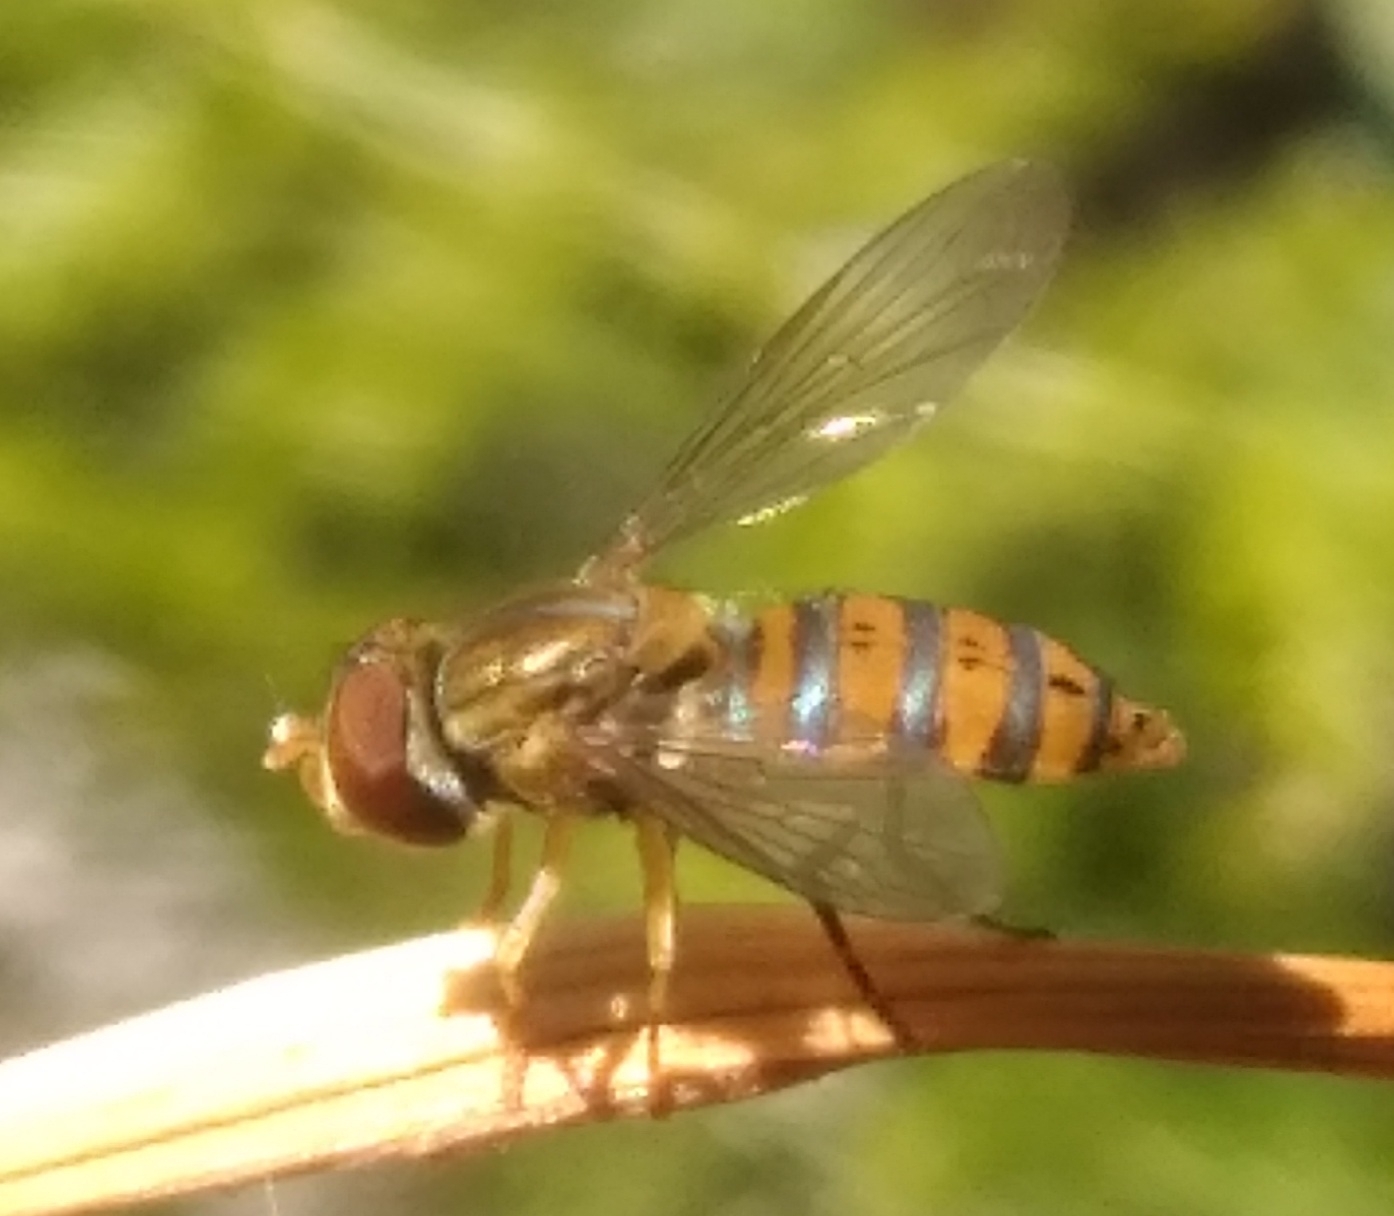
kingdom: Animalia
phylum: Arthropoda
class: Insecta
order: Diptera
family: Syrphidae
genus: Toxomerus
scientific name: Toxomerus
